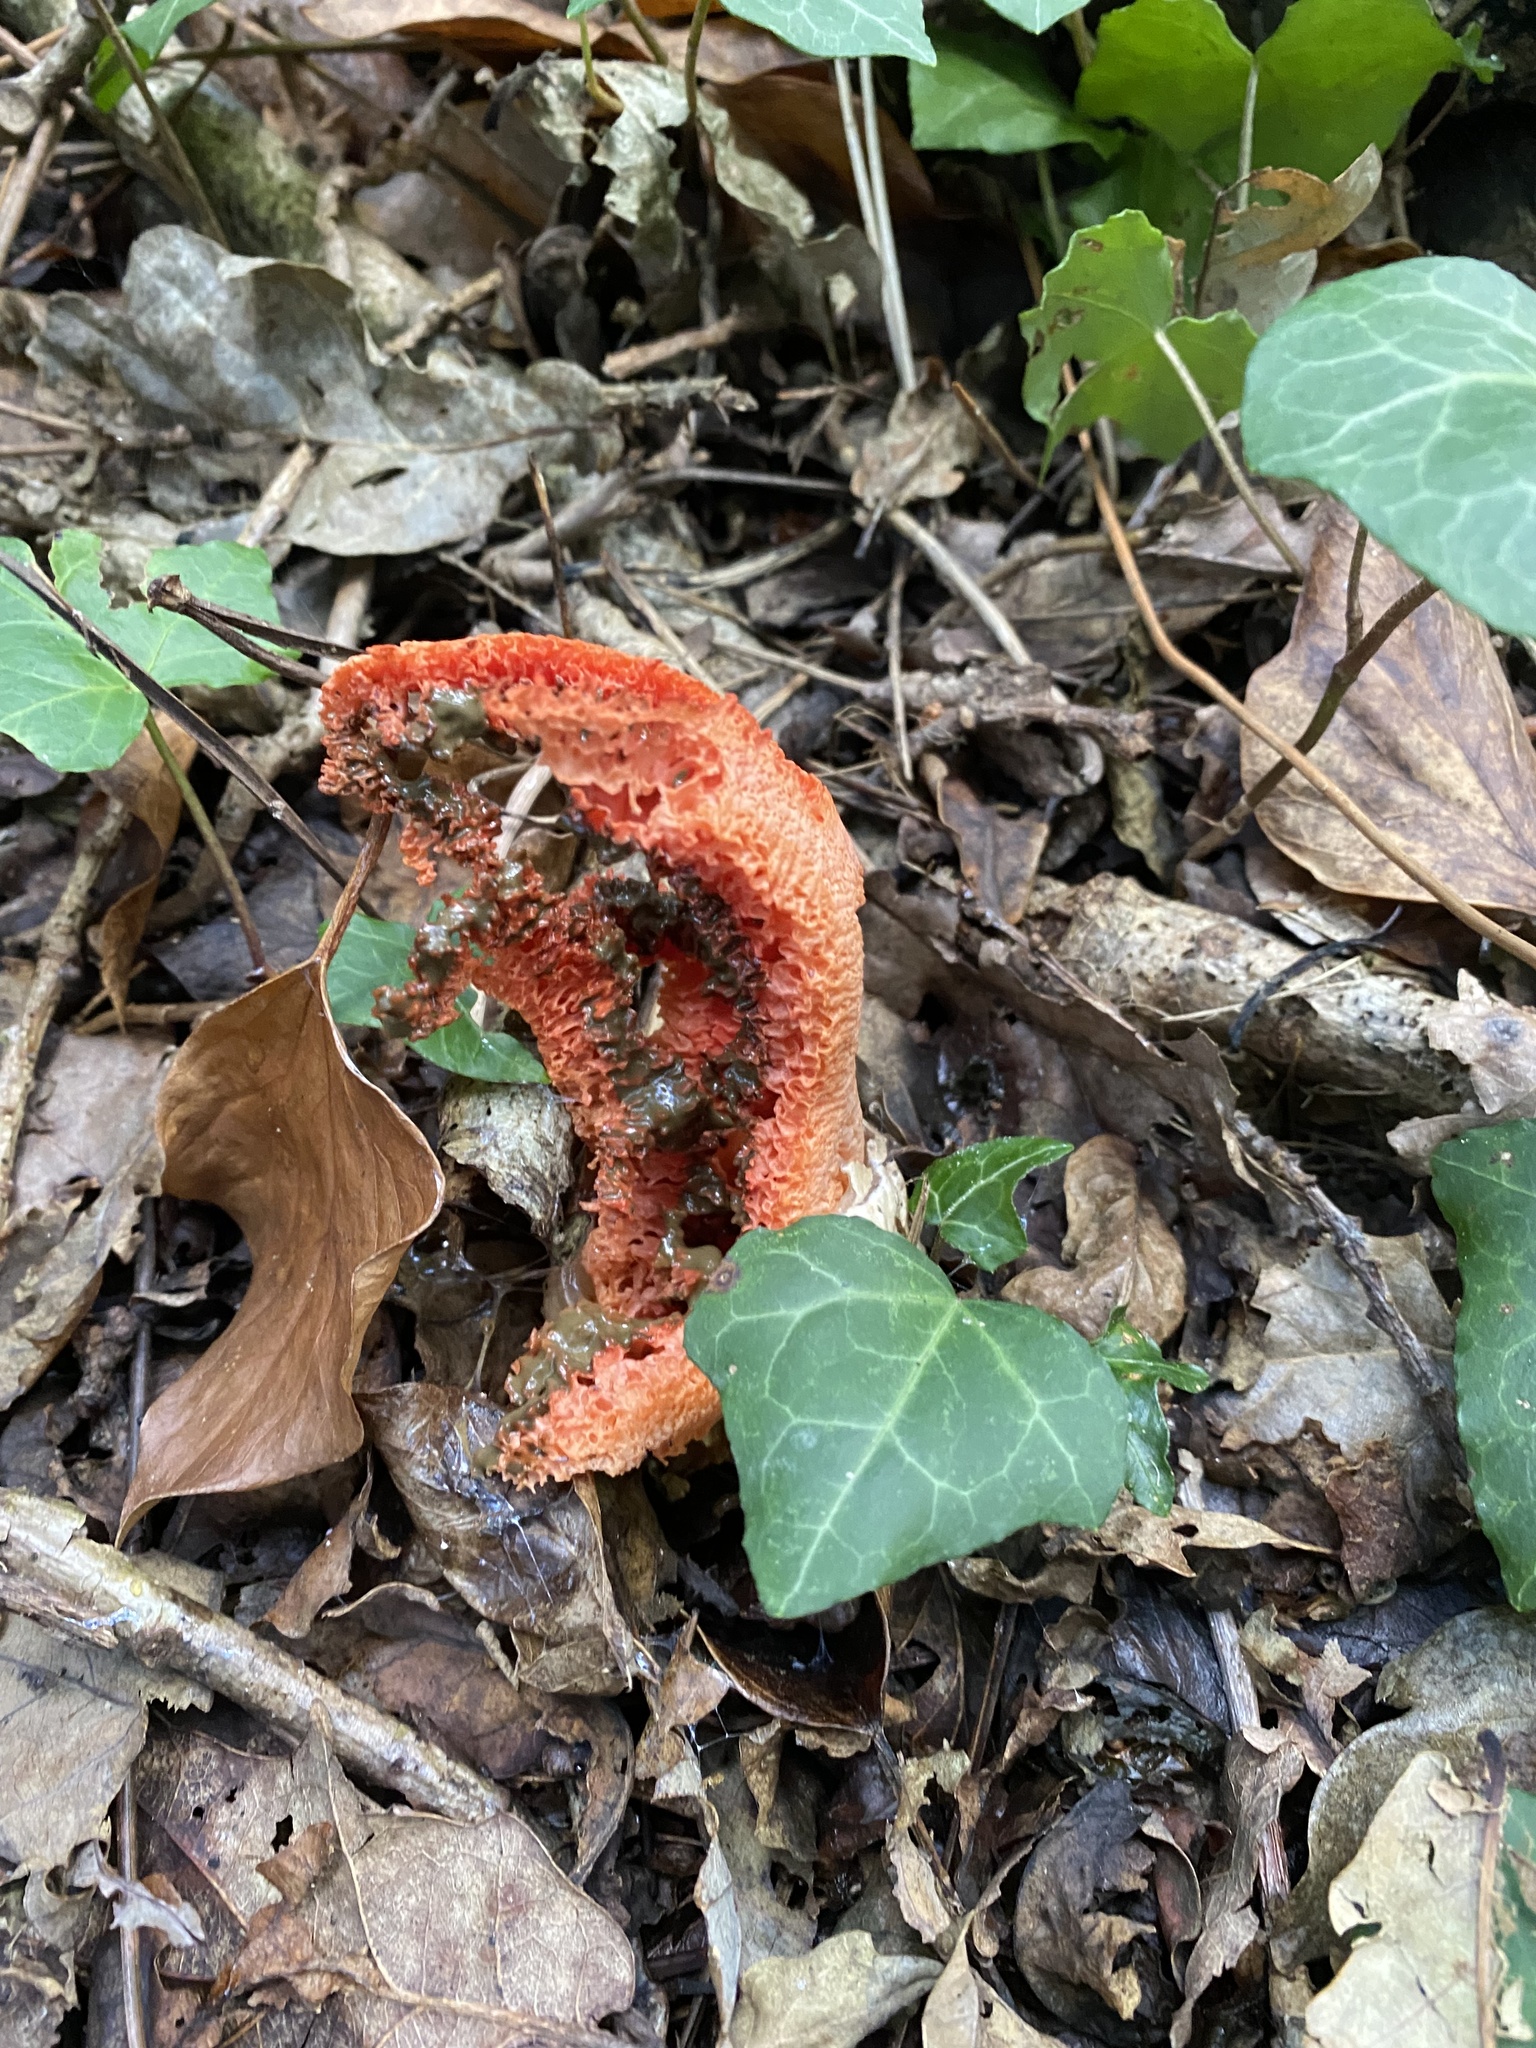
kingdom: Fungi
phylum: Basidiomycota
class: Agaricomycetes
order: Phallales
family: Phallaceae
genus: Clathrus
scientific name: Clathrus ruber
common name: Red cage
